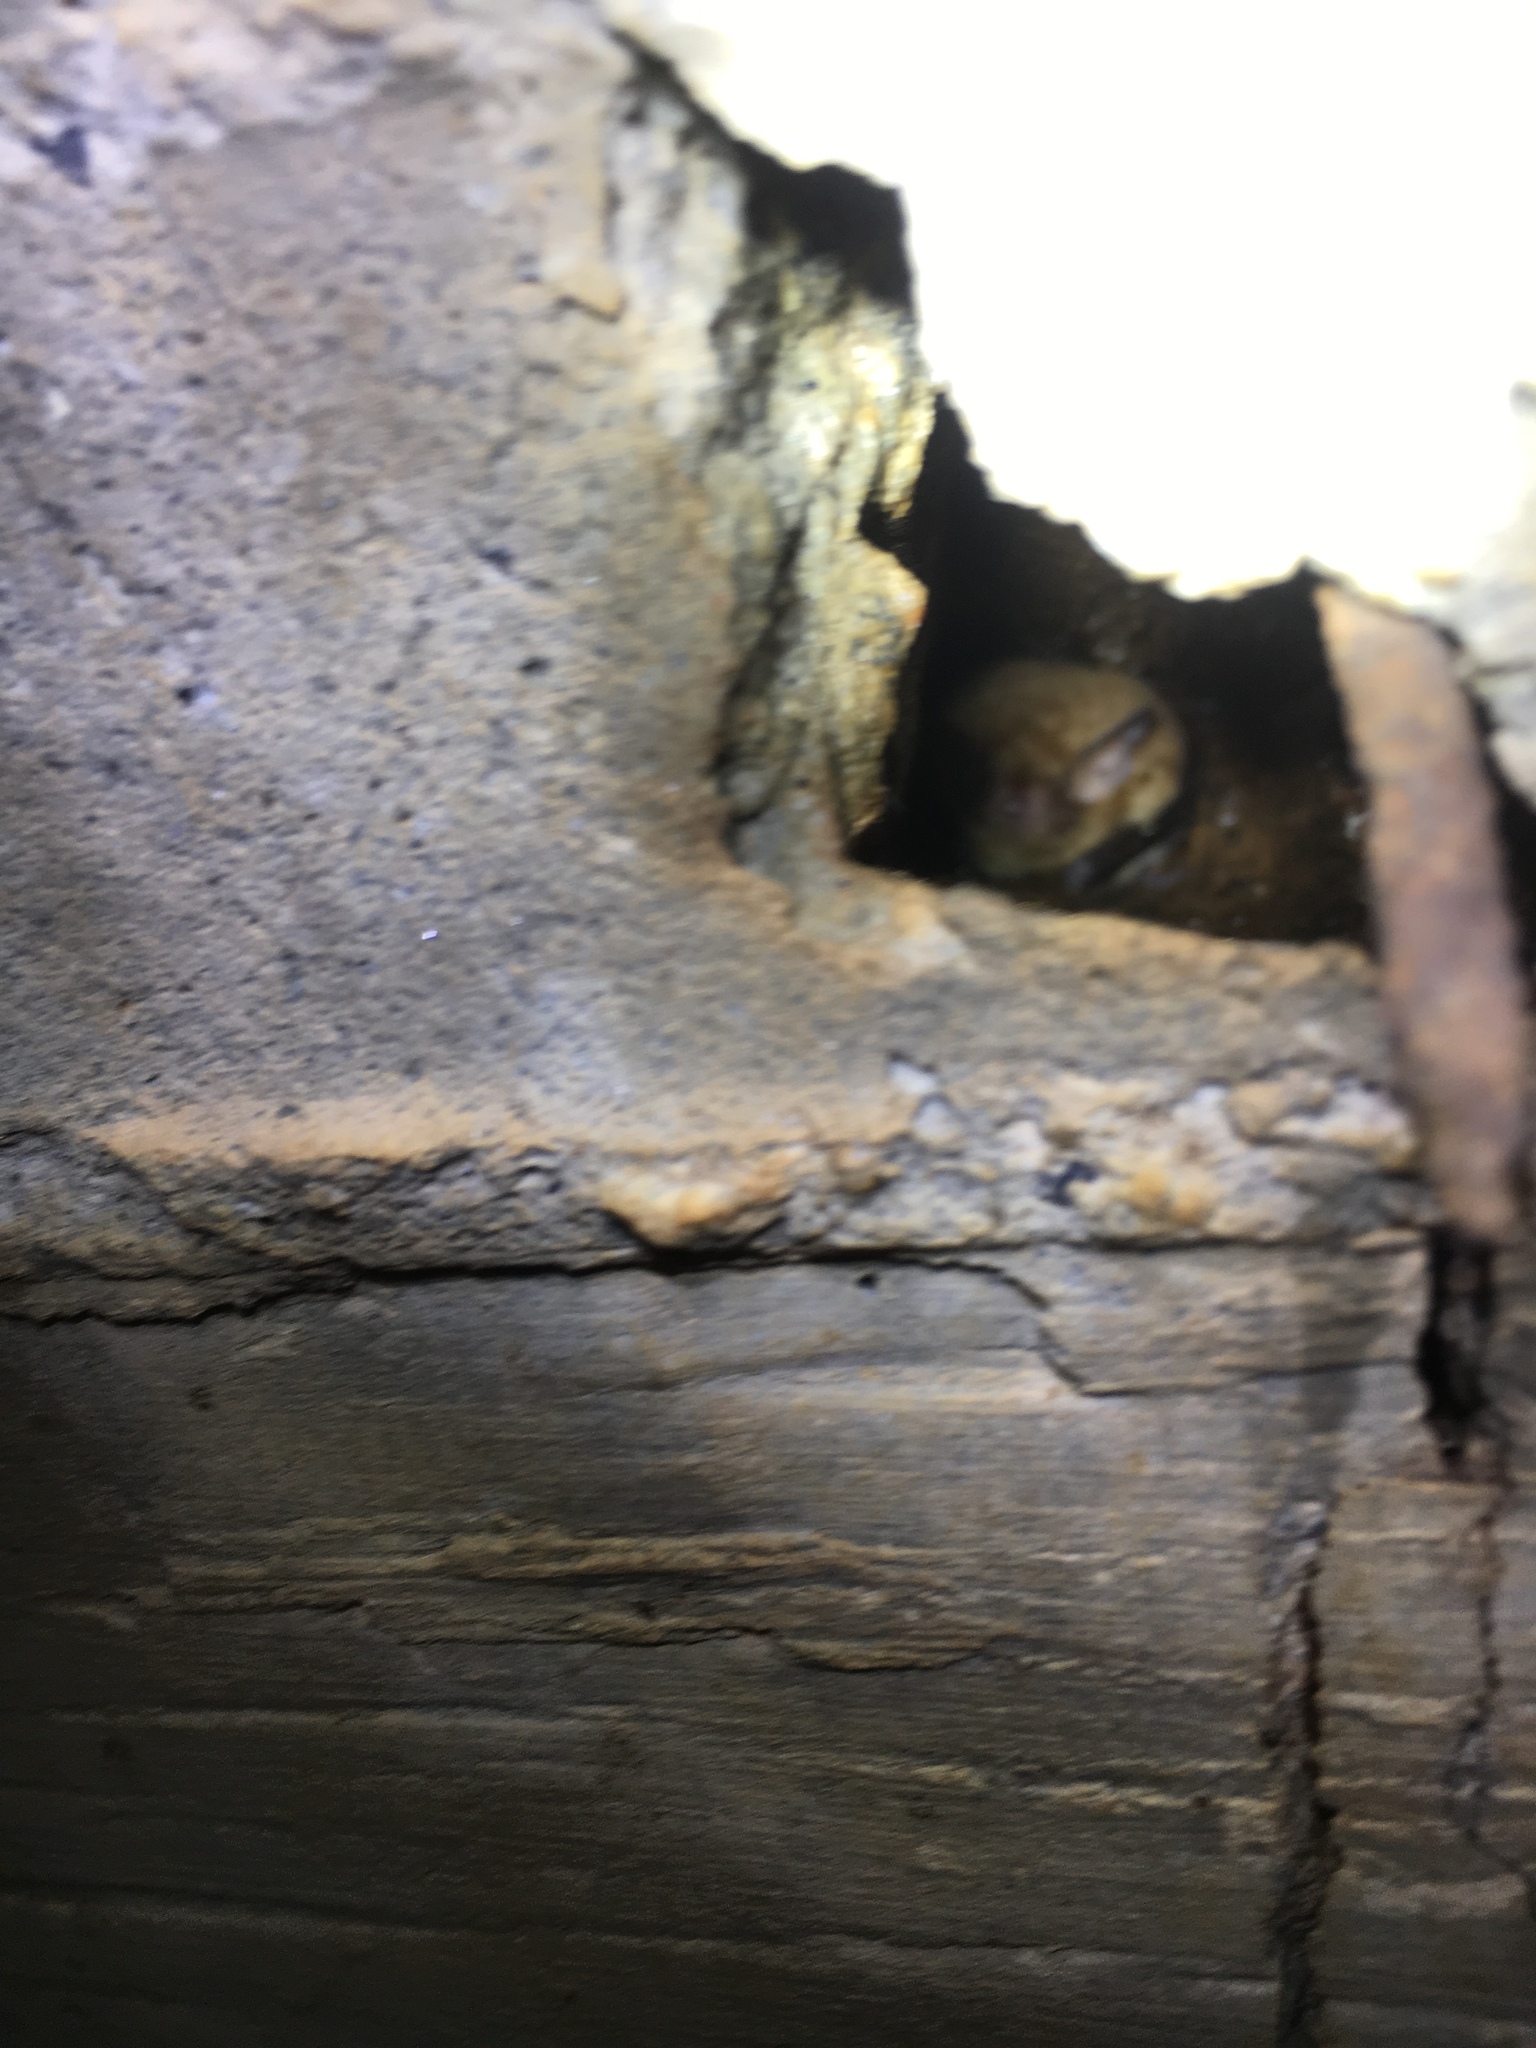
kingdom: Animalia
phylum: Chordata
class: Mammalia
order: Chiroptera
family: Vespertilionidae
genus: Myotis
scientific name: Myotis austroriparius
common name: Southeastern myotis
